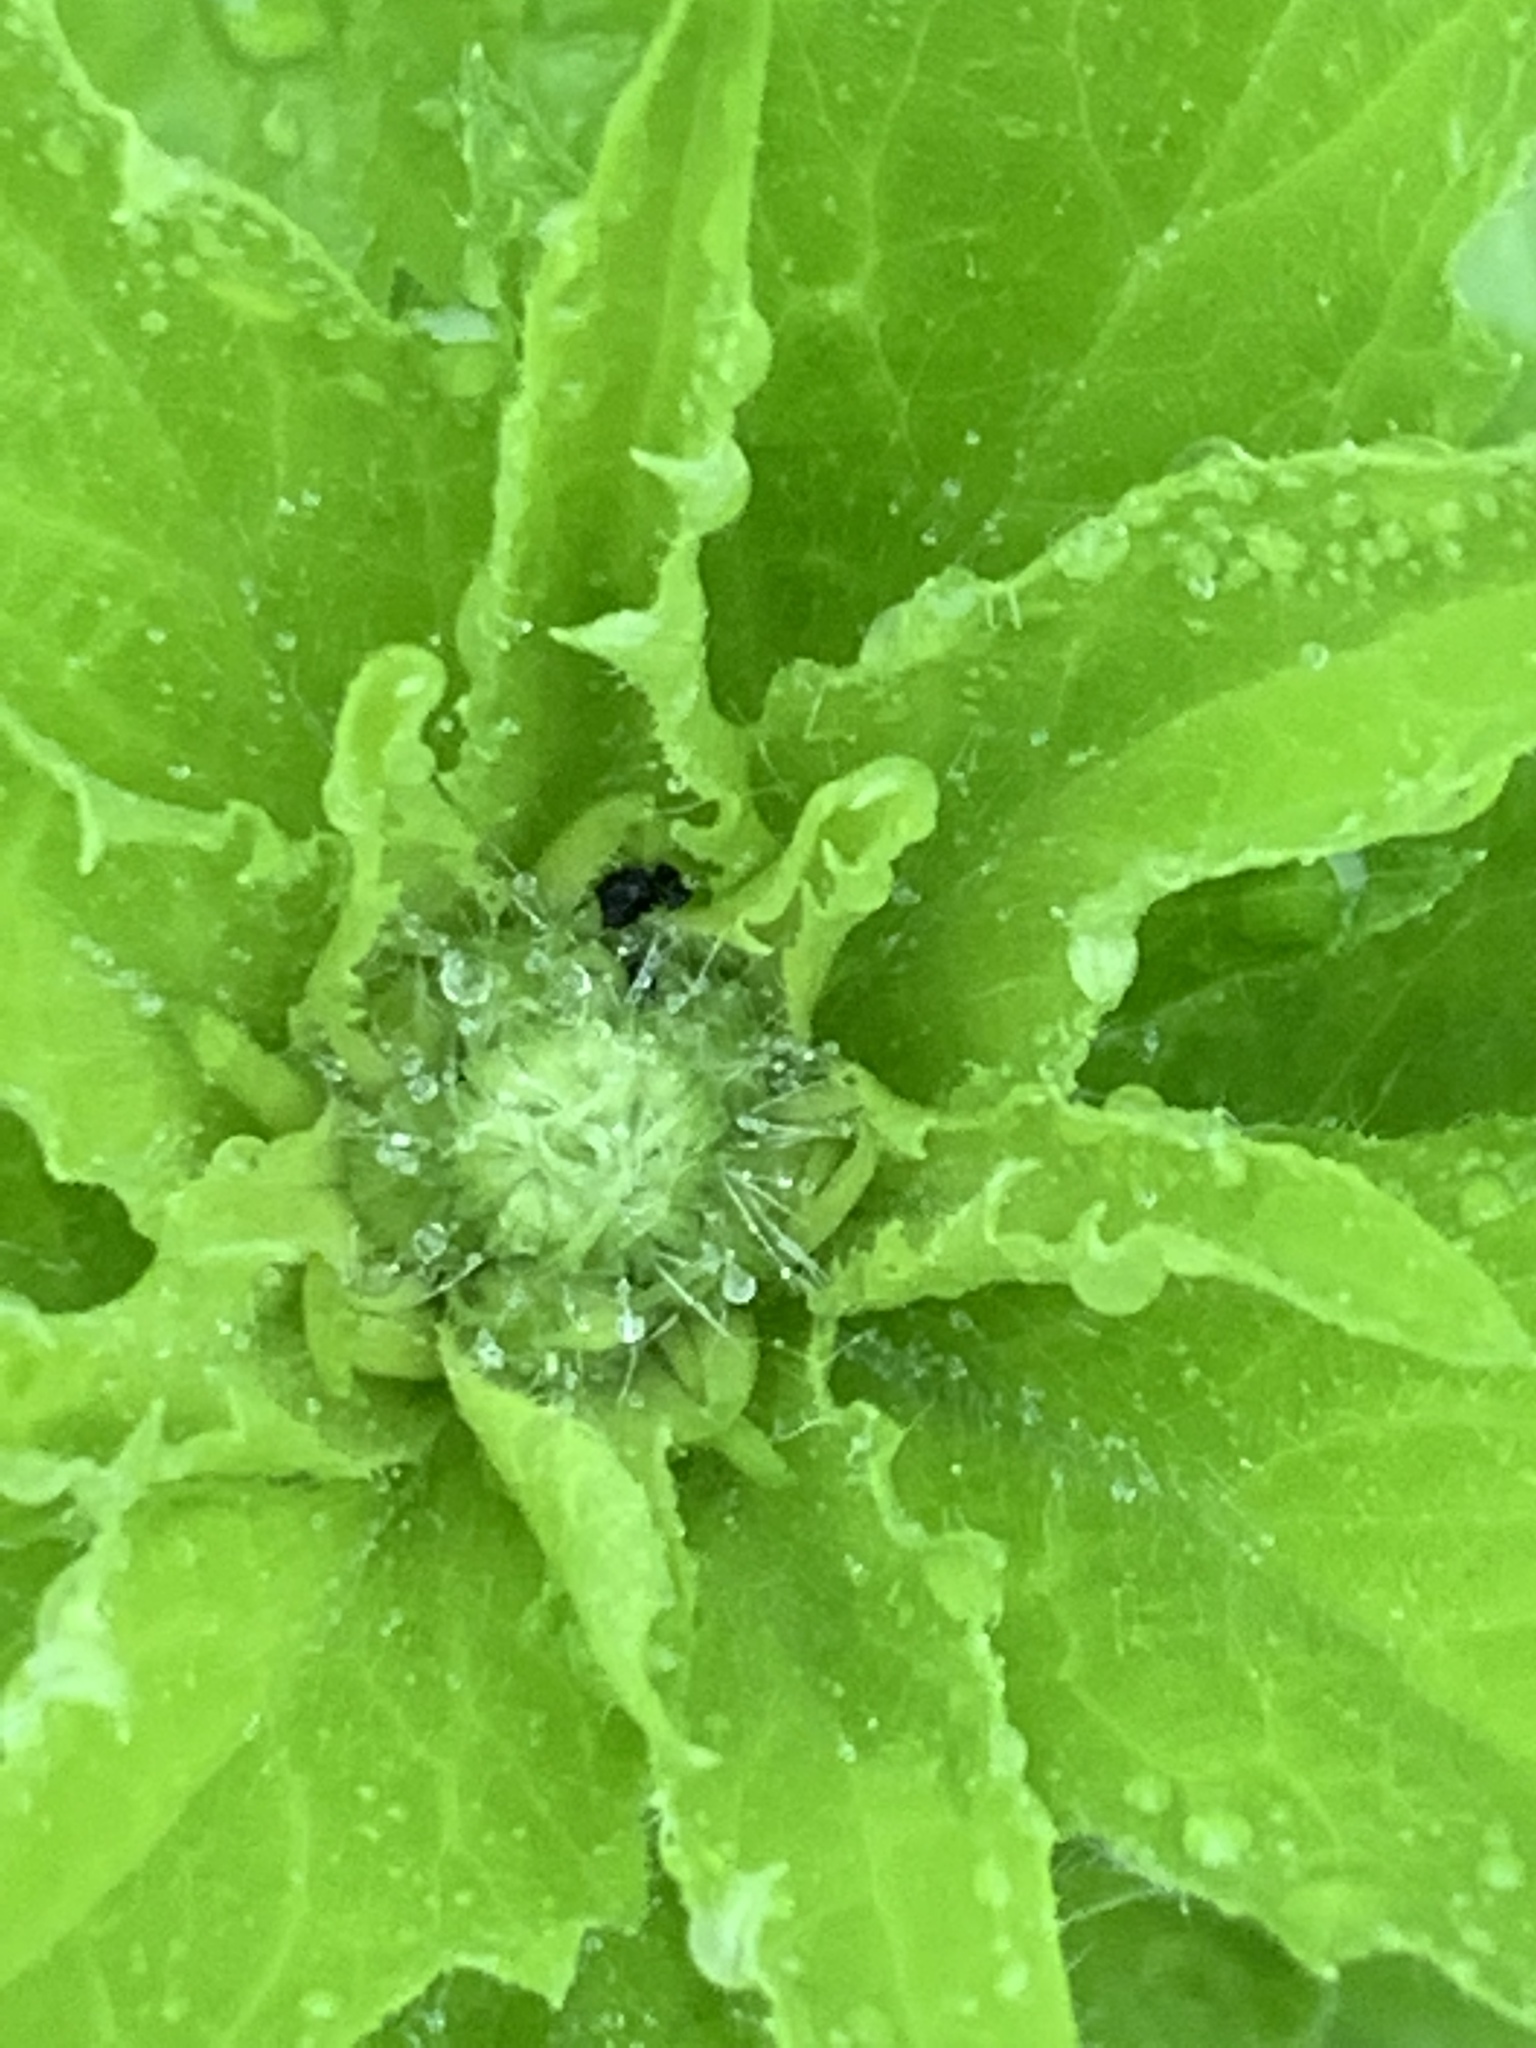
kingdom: Plantae
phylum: Tracheophyta
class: Magnoliopsida
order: Asterales
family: Asteraceae
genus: Erigeron
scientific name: Erigeron annuus
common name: Tall fleabane
